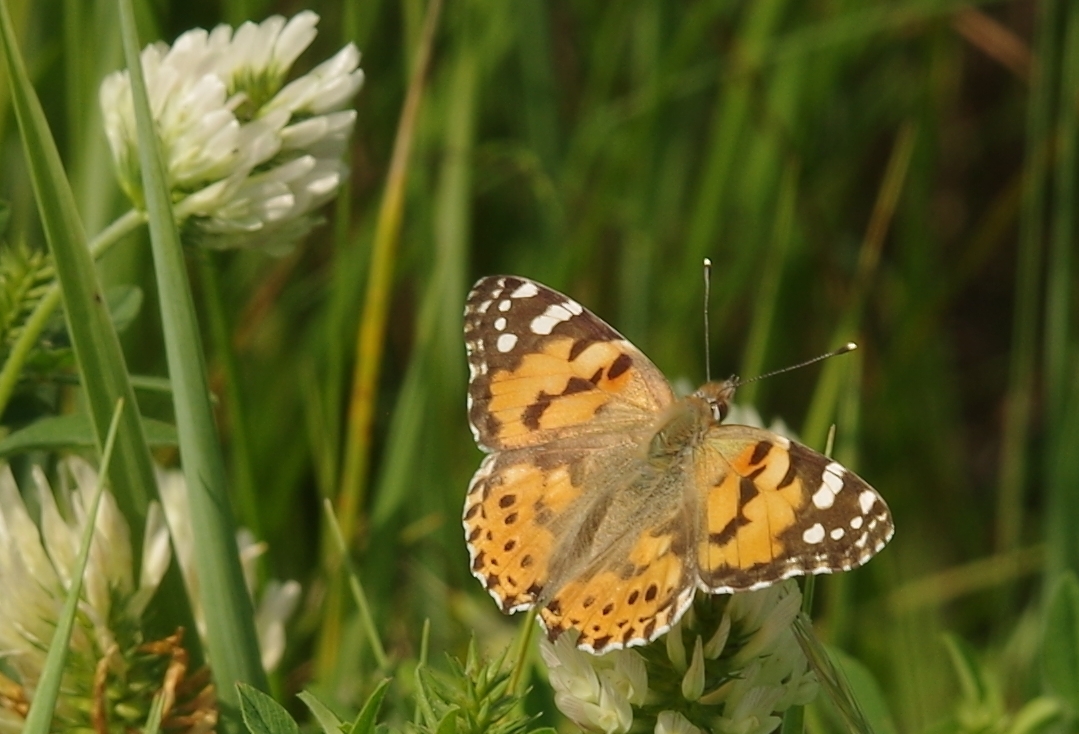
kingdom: Animalia
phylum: Arthropoda
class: Insecta
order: Lepidoptera
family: Nymphalidae
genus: Vanessa
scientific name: Vanessa cardui
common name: Painted lady
